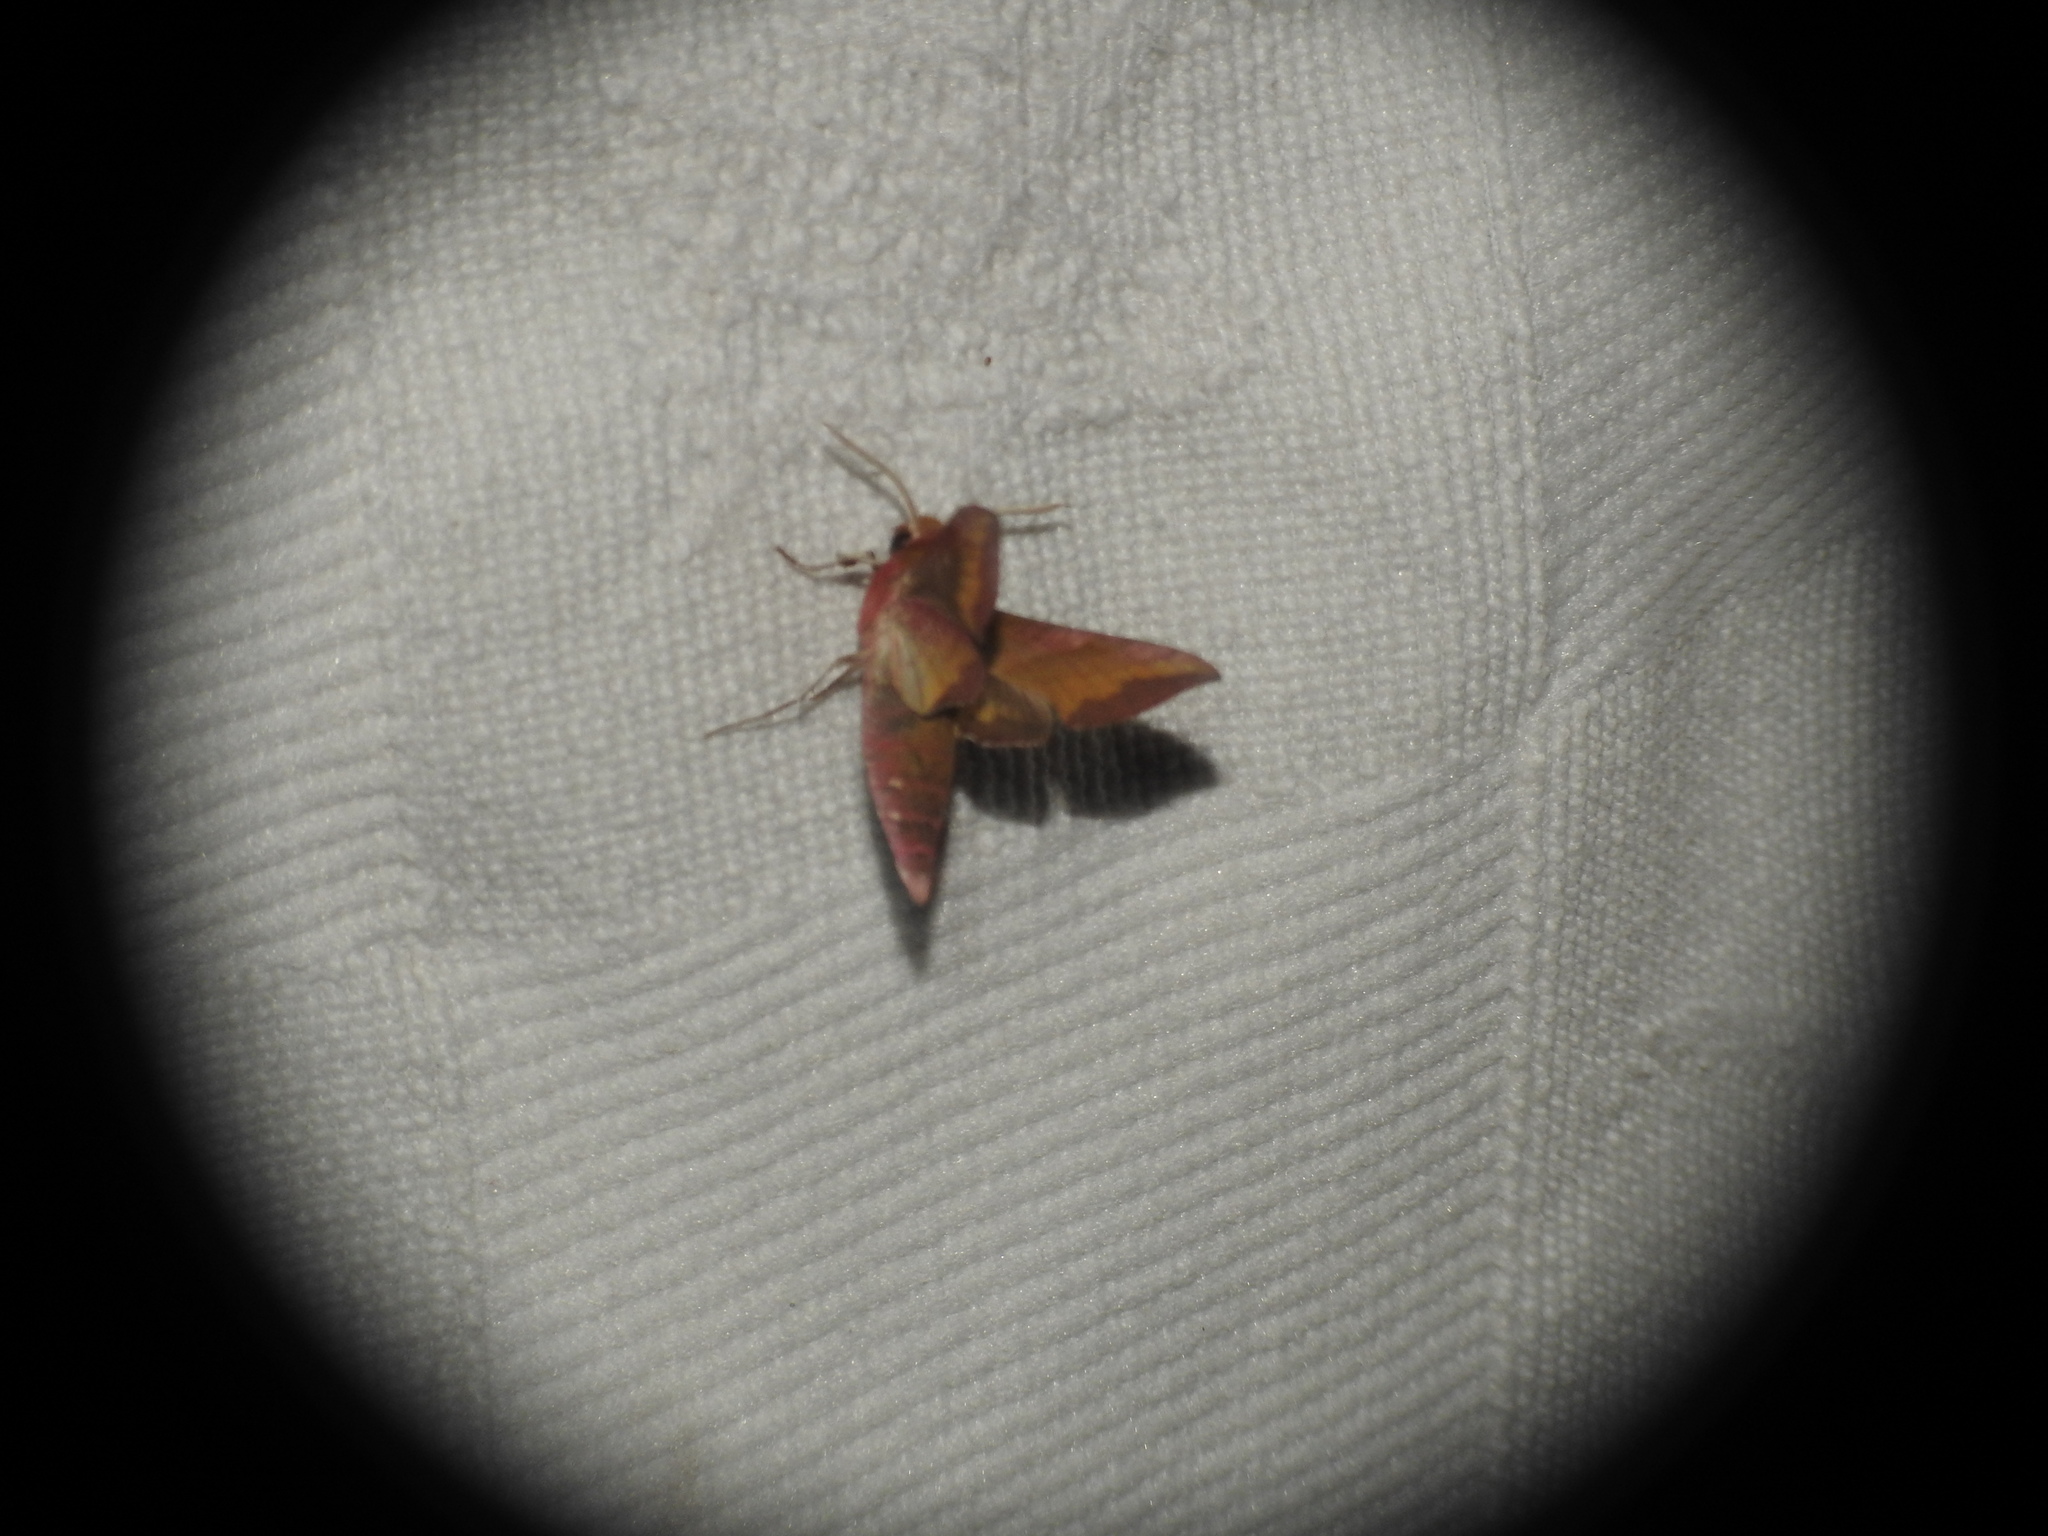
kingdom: Animalia
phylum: Arthropoda
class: Insecta
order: Lepidoptera
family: Sphingidae
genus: Deilephila
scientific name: Deilephila porcellus
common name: Small elephant hawk-moth
